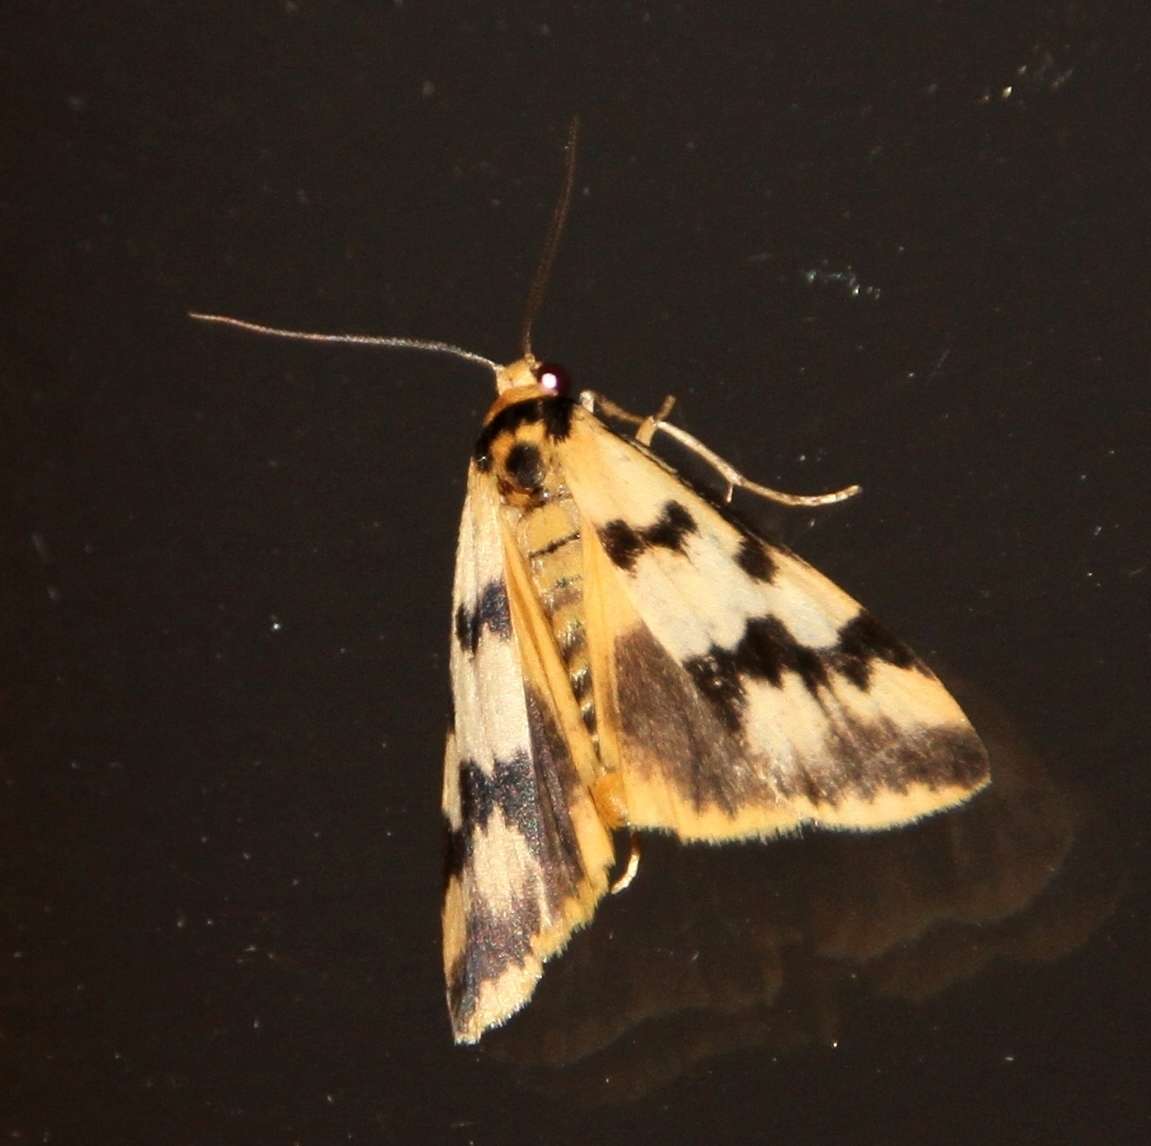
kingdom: Animalia
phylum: Arthropoda
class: Insecta
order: Lepidoptera
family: Erebidae
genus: Tigrioides
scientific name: Tigrioides alterna
